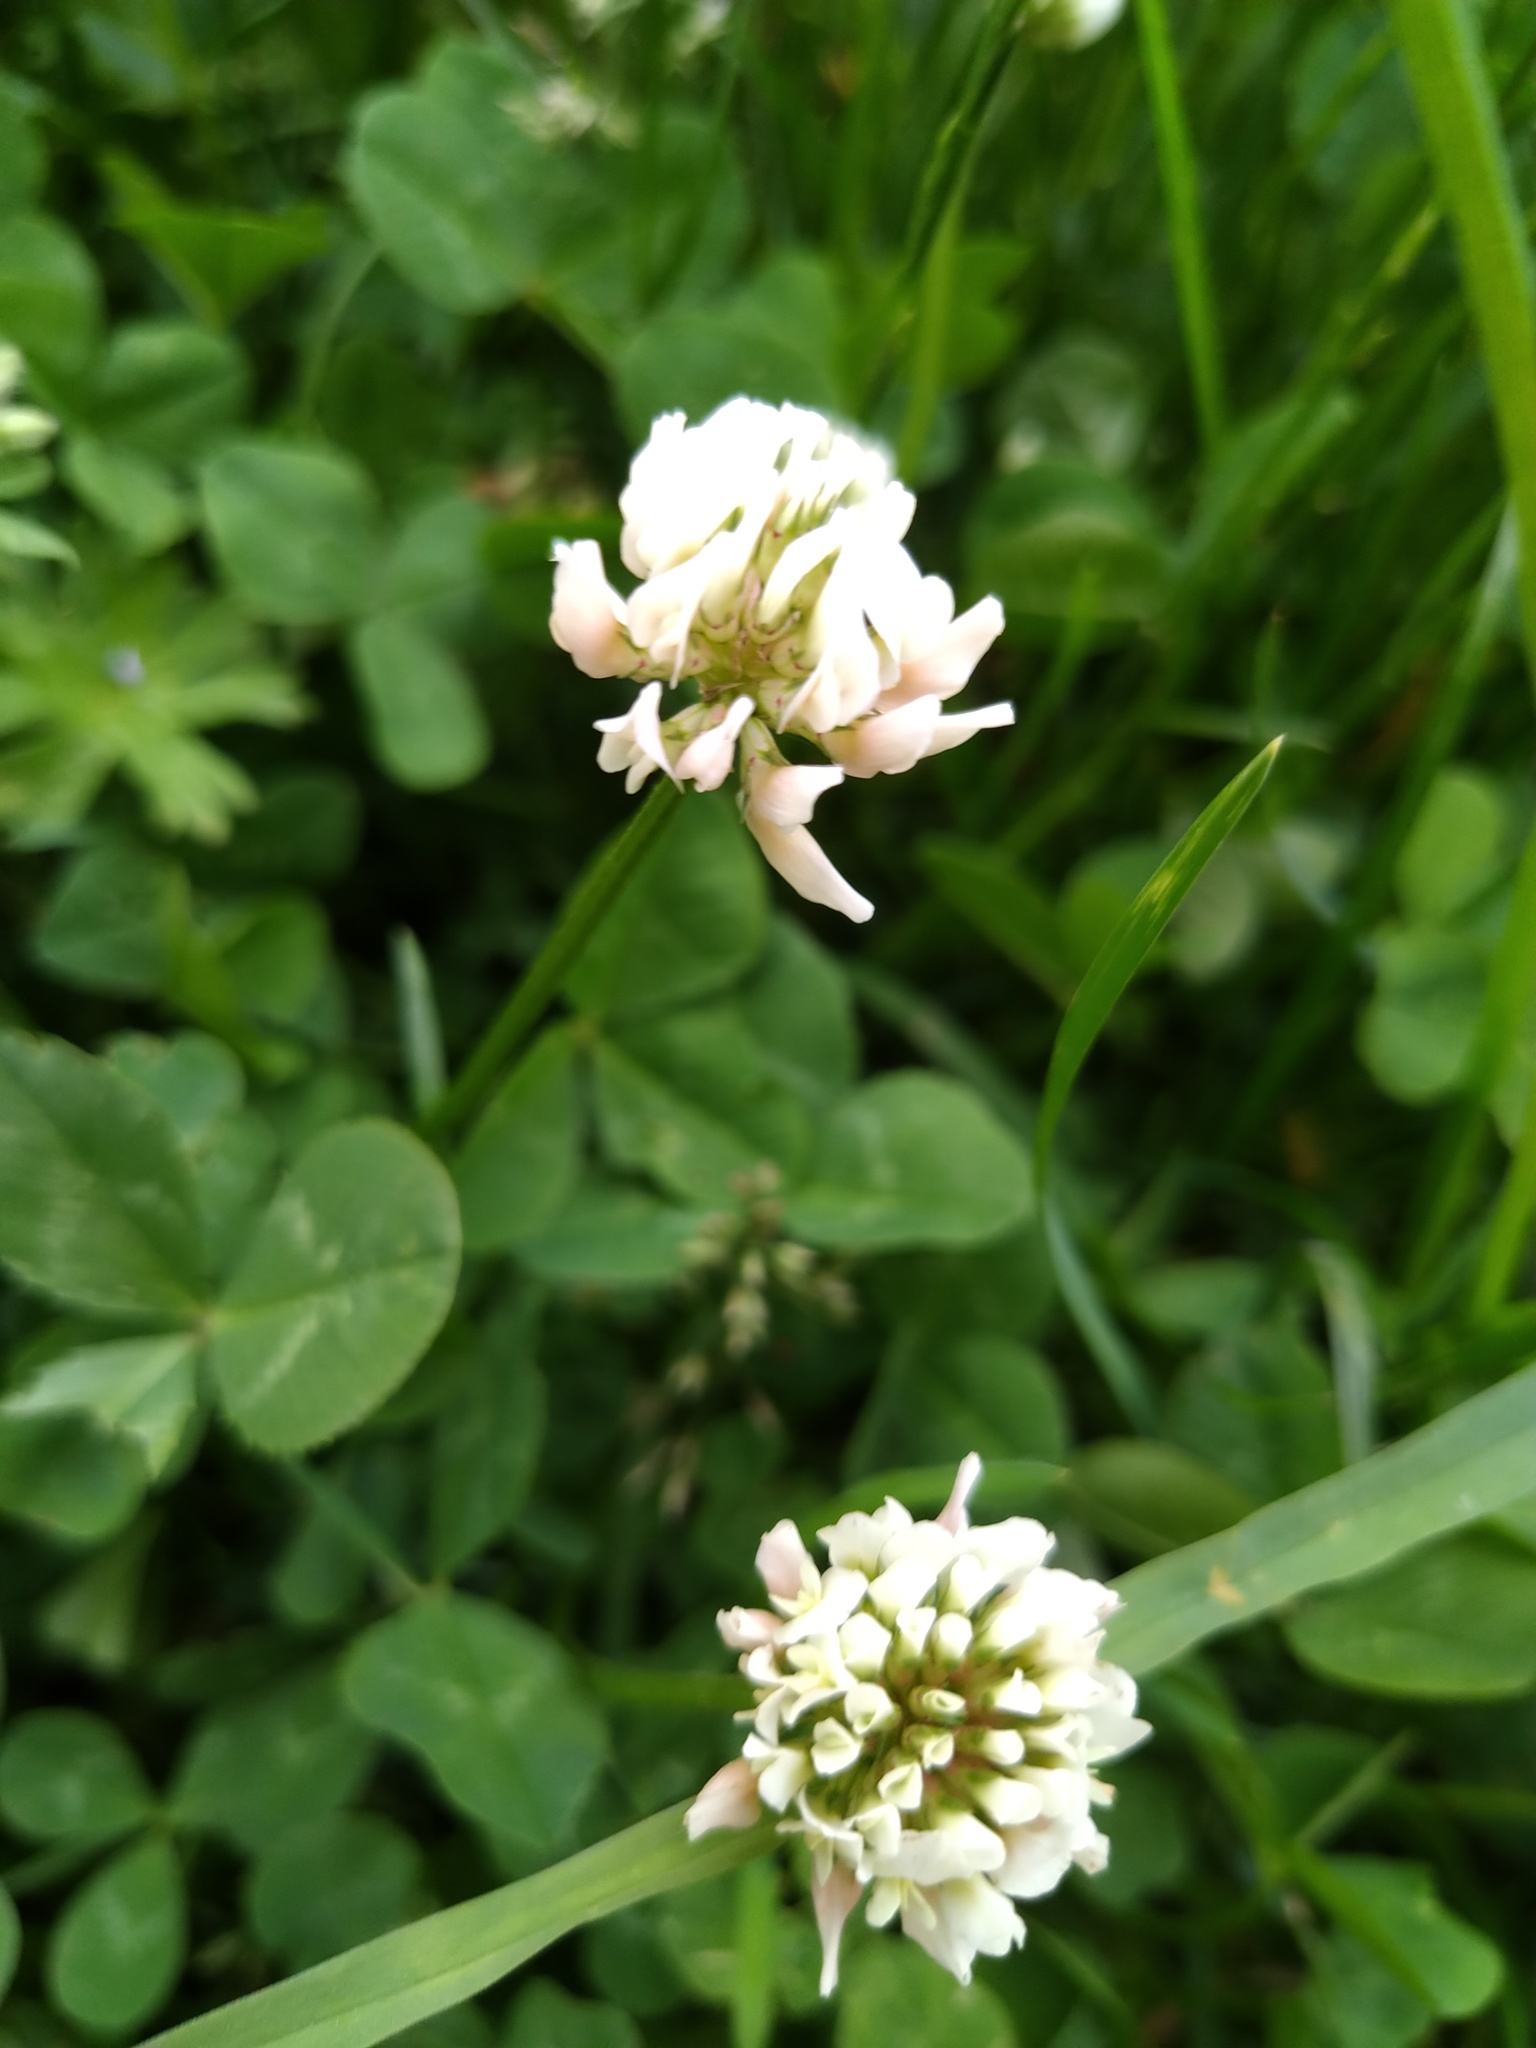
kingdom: Plantae
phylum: Tracheophyta
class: Magnoliopsida
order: Fabales
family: Fabaceae
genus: Trifolium
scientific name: Trifolium repens
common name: White clover
